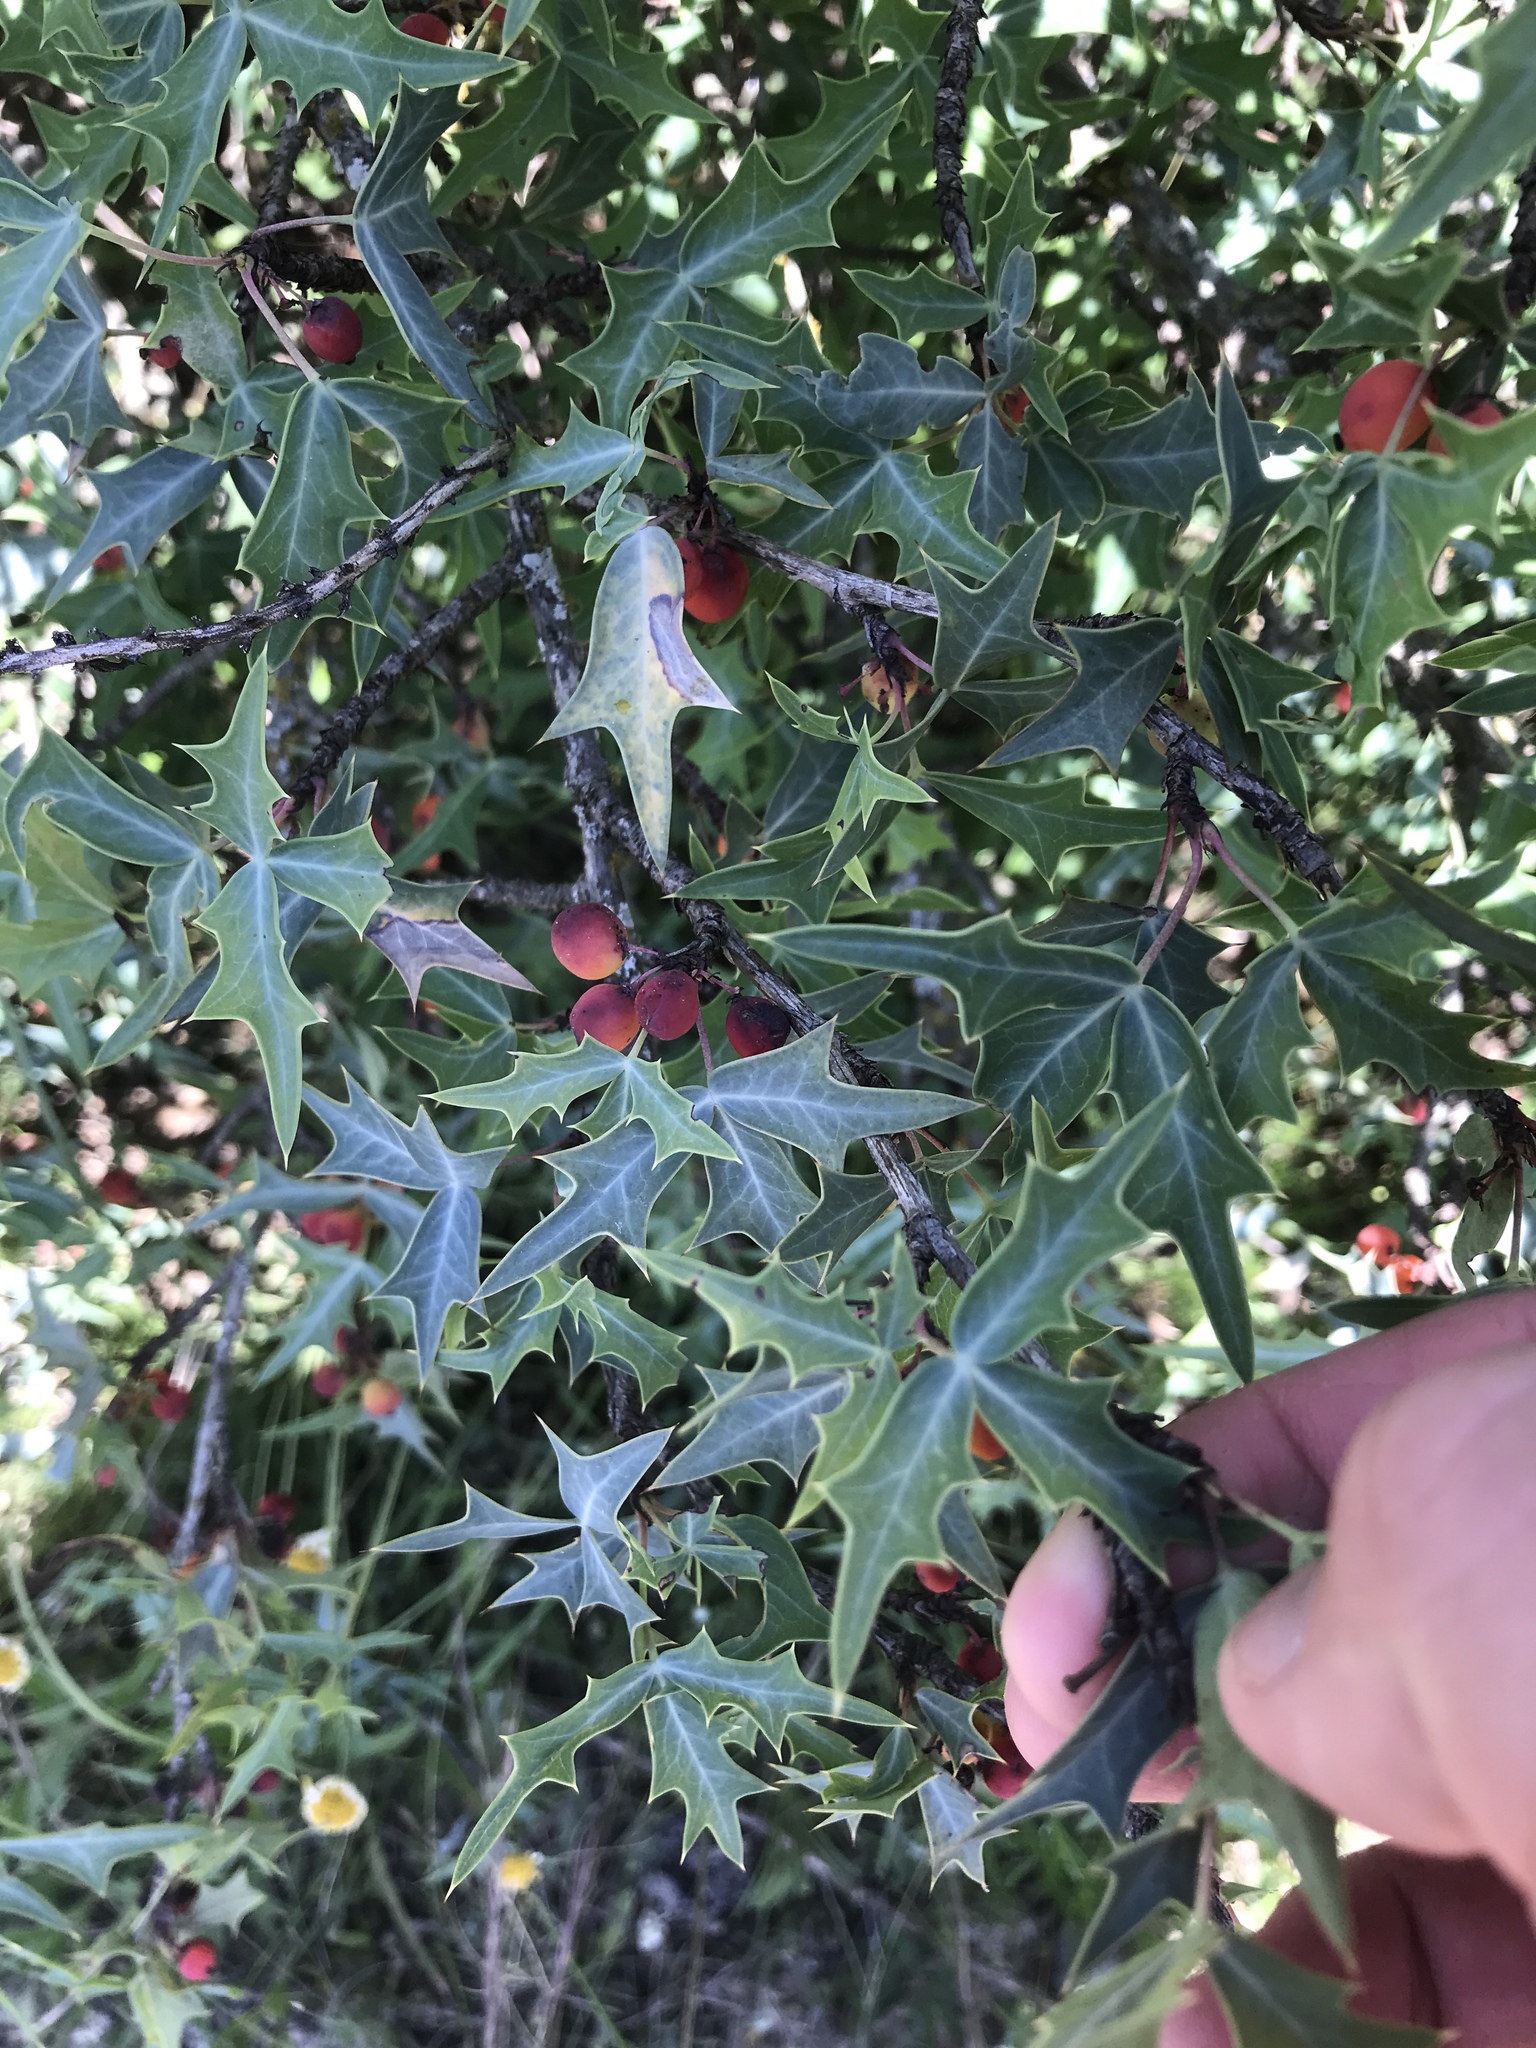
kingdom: Plantae
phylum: Tracheophyta
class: Magnoliopsida
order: Ranunculales
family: Berberidaceae
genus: Alloberberis
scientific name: Alloberberis trifoliolata
